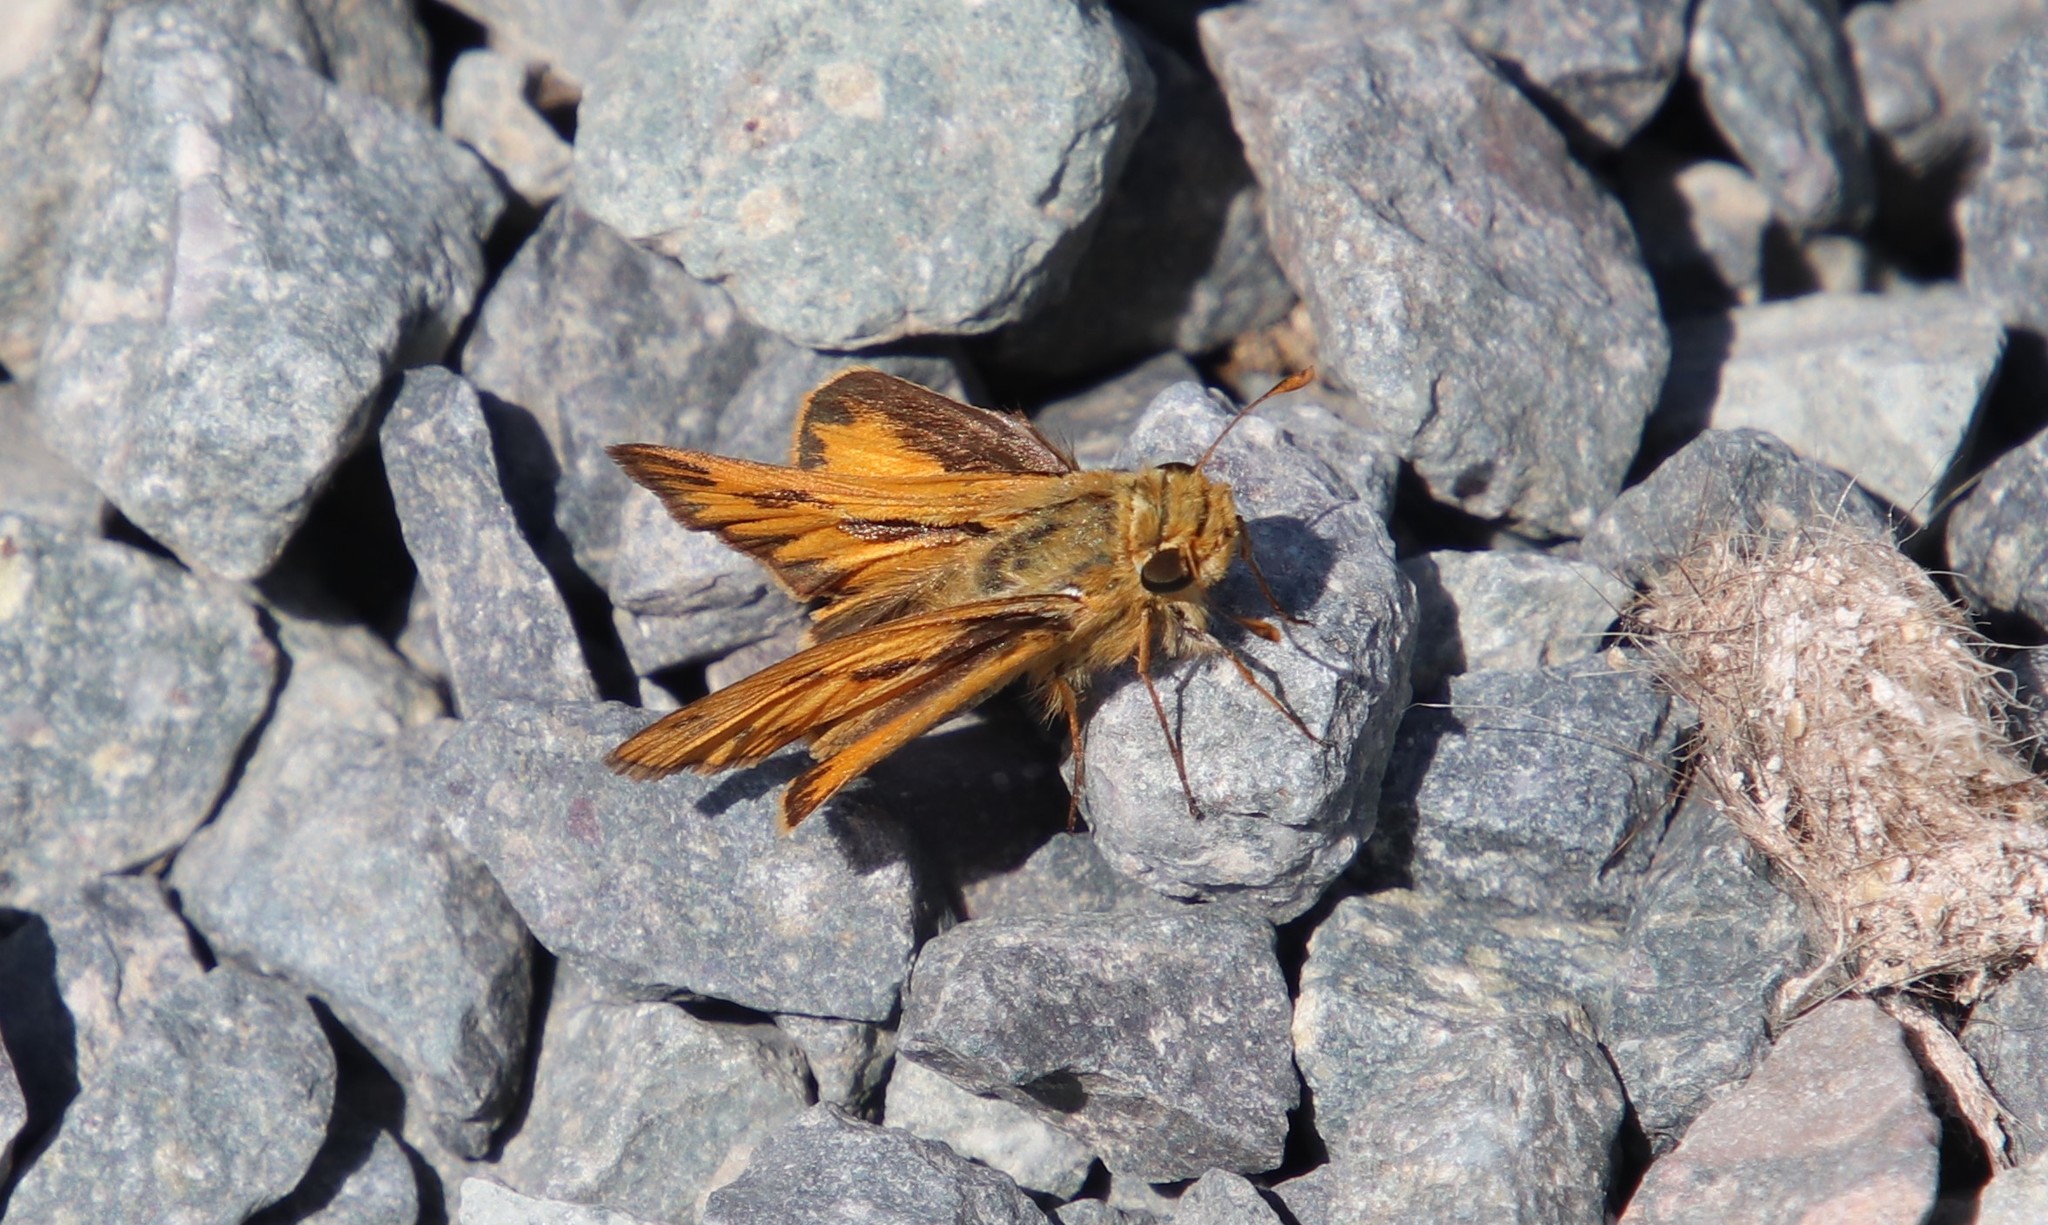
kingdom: Animalia
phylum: Arthropoda
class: Insecta
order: Lepidoptera
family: Hesperiidae
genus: Hylephila
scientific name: Hylephila phyleus
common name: Fiery skipper
